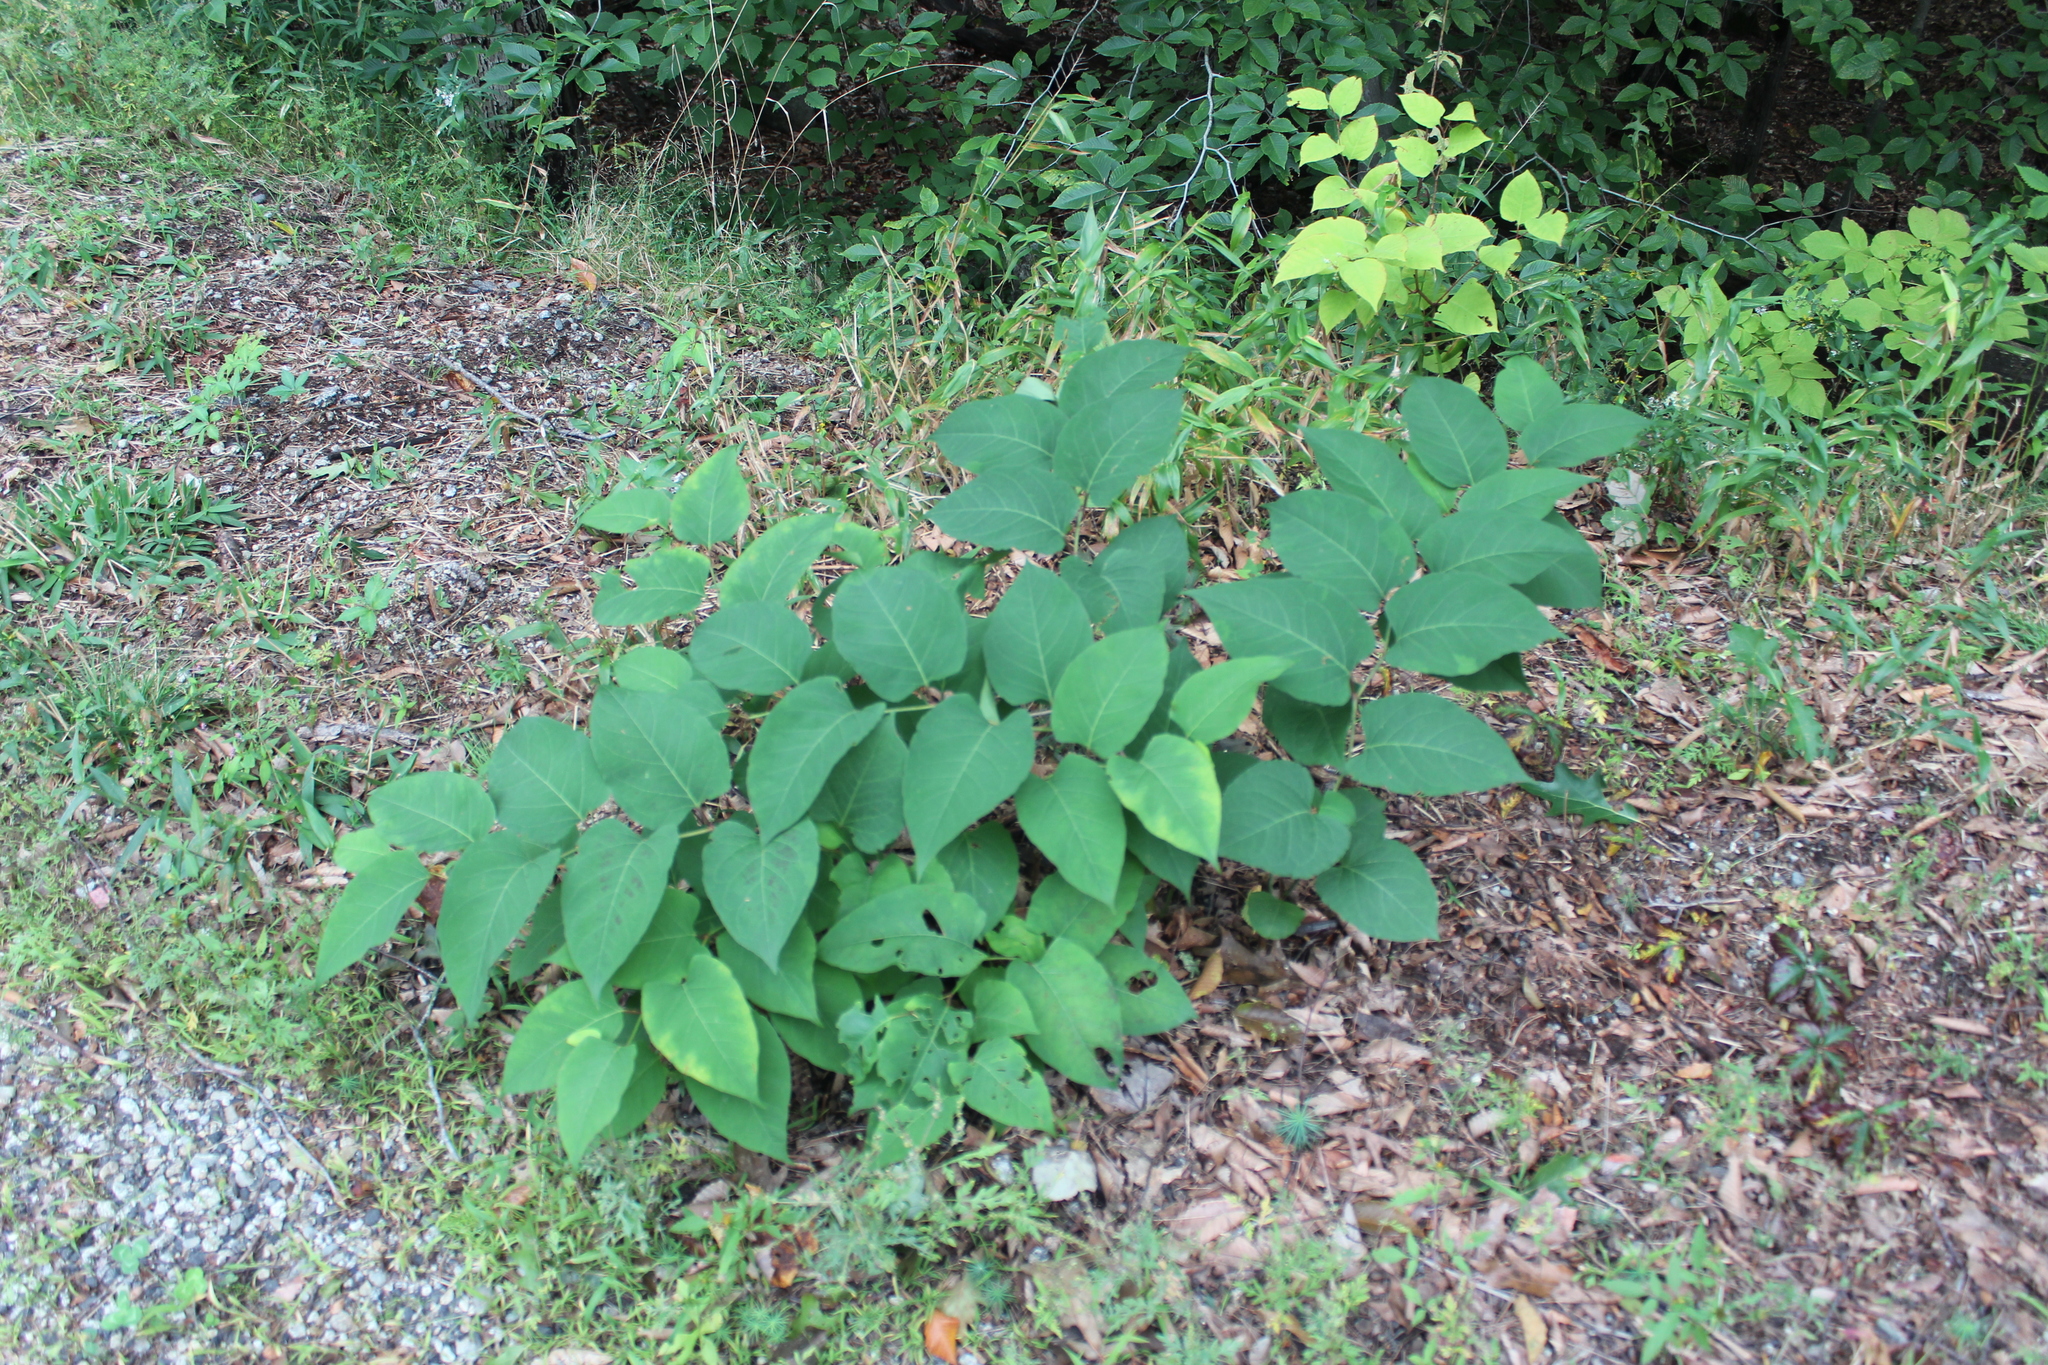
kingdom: Plantae
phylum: Tracheophyta
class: Magnoliopsida
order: Caryophyllales
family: Polygonaceae
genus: Reynoutria
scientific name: Reynoutria japonica
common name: Japanese knotweed
